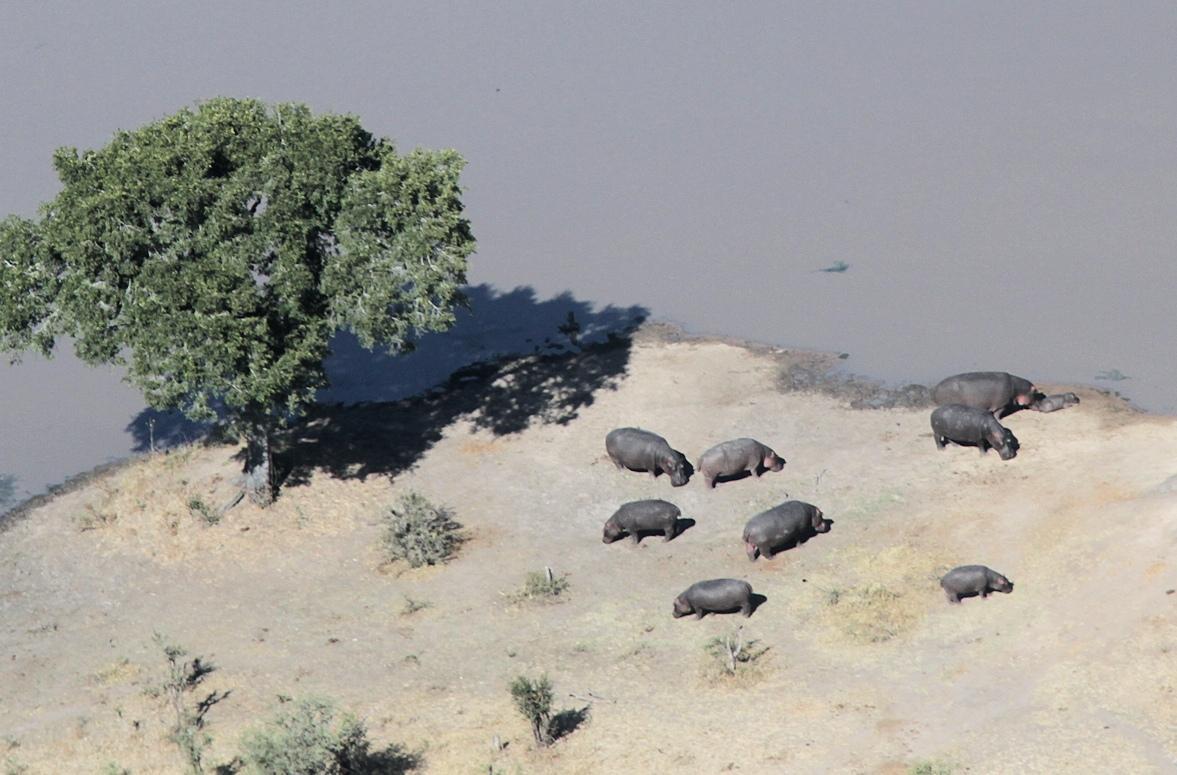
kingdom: Animalia
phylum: Chordata
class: Mammalia
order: Artiodactyla
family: Hippopotamidae
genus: Hippopotamus
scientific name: Hippopotamus amphibius
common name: Common hippopotamus
